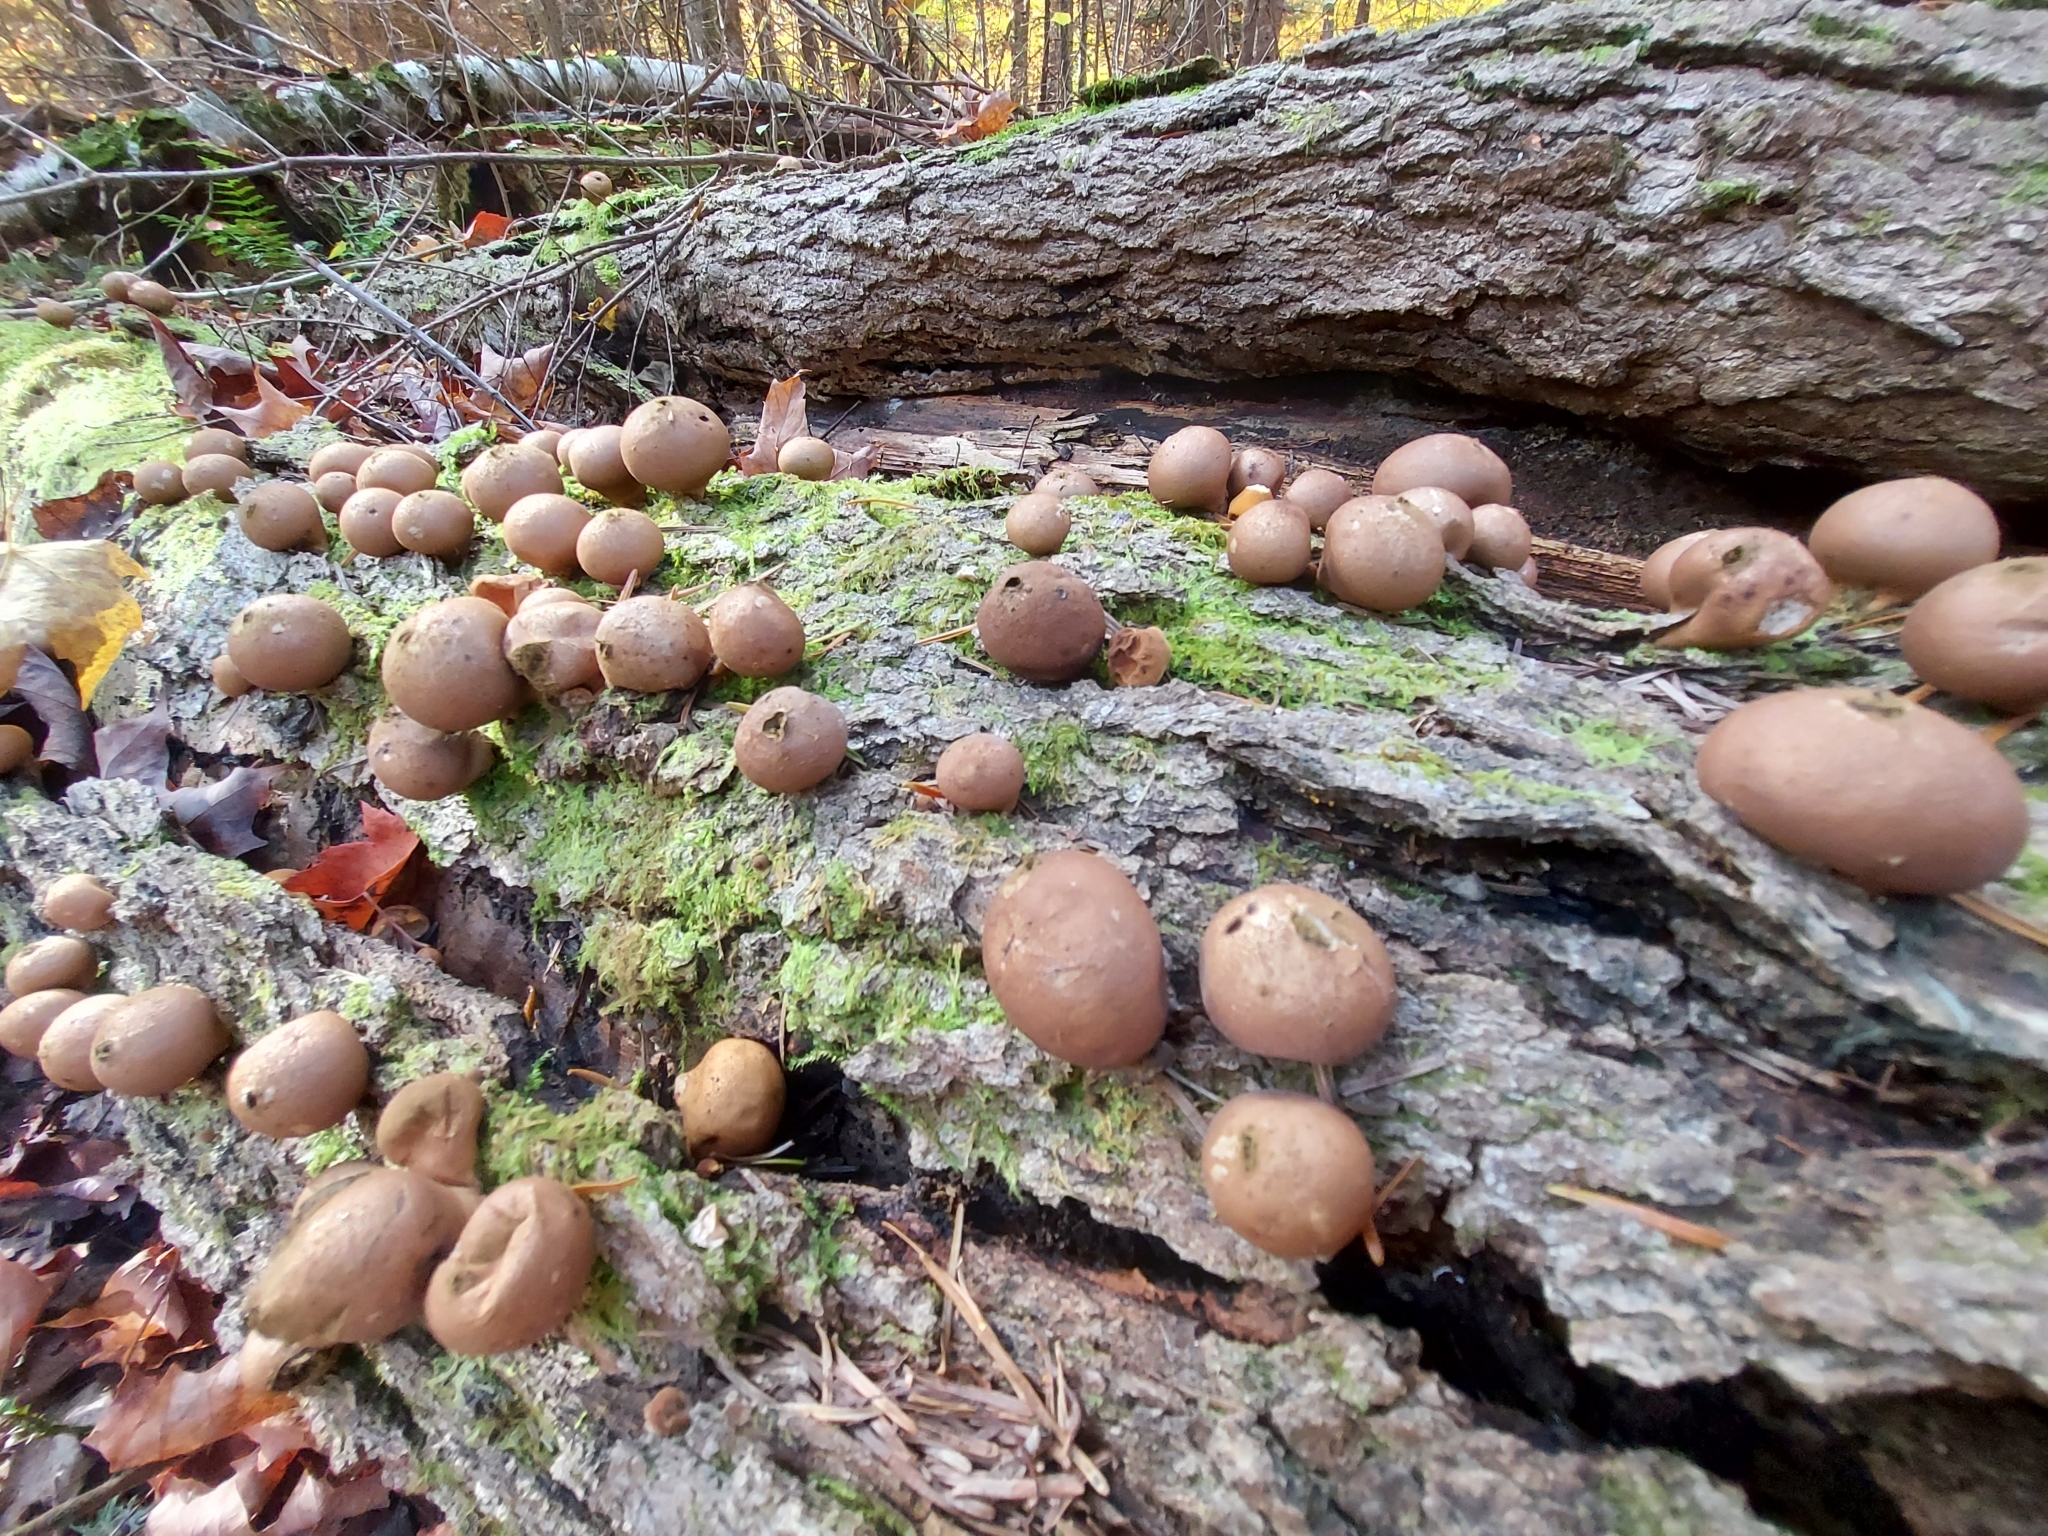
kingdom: Fungi
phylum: Basidiomycota
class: Agaricomycetes
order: Agaricales
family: Lycoperdaceae
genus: Apioperdon
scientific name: Apioperdon pyriforme
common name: Pear-shaped puffball
